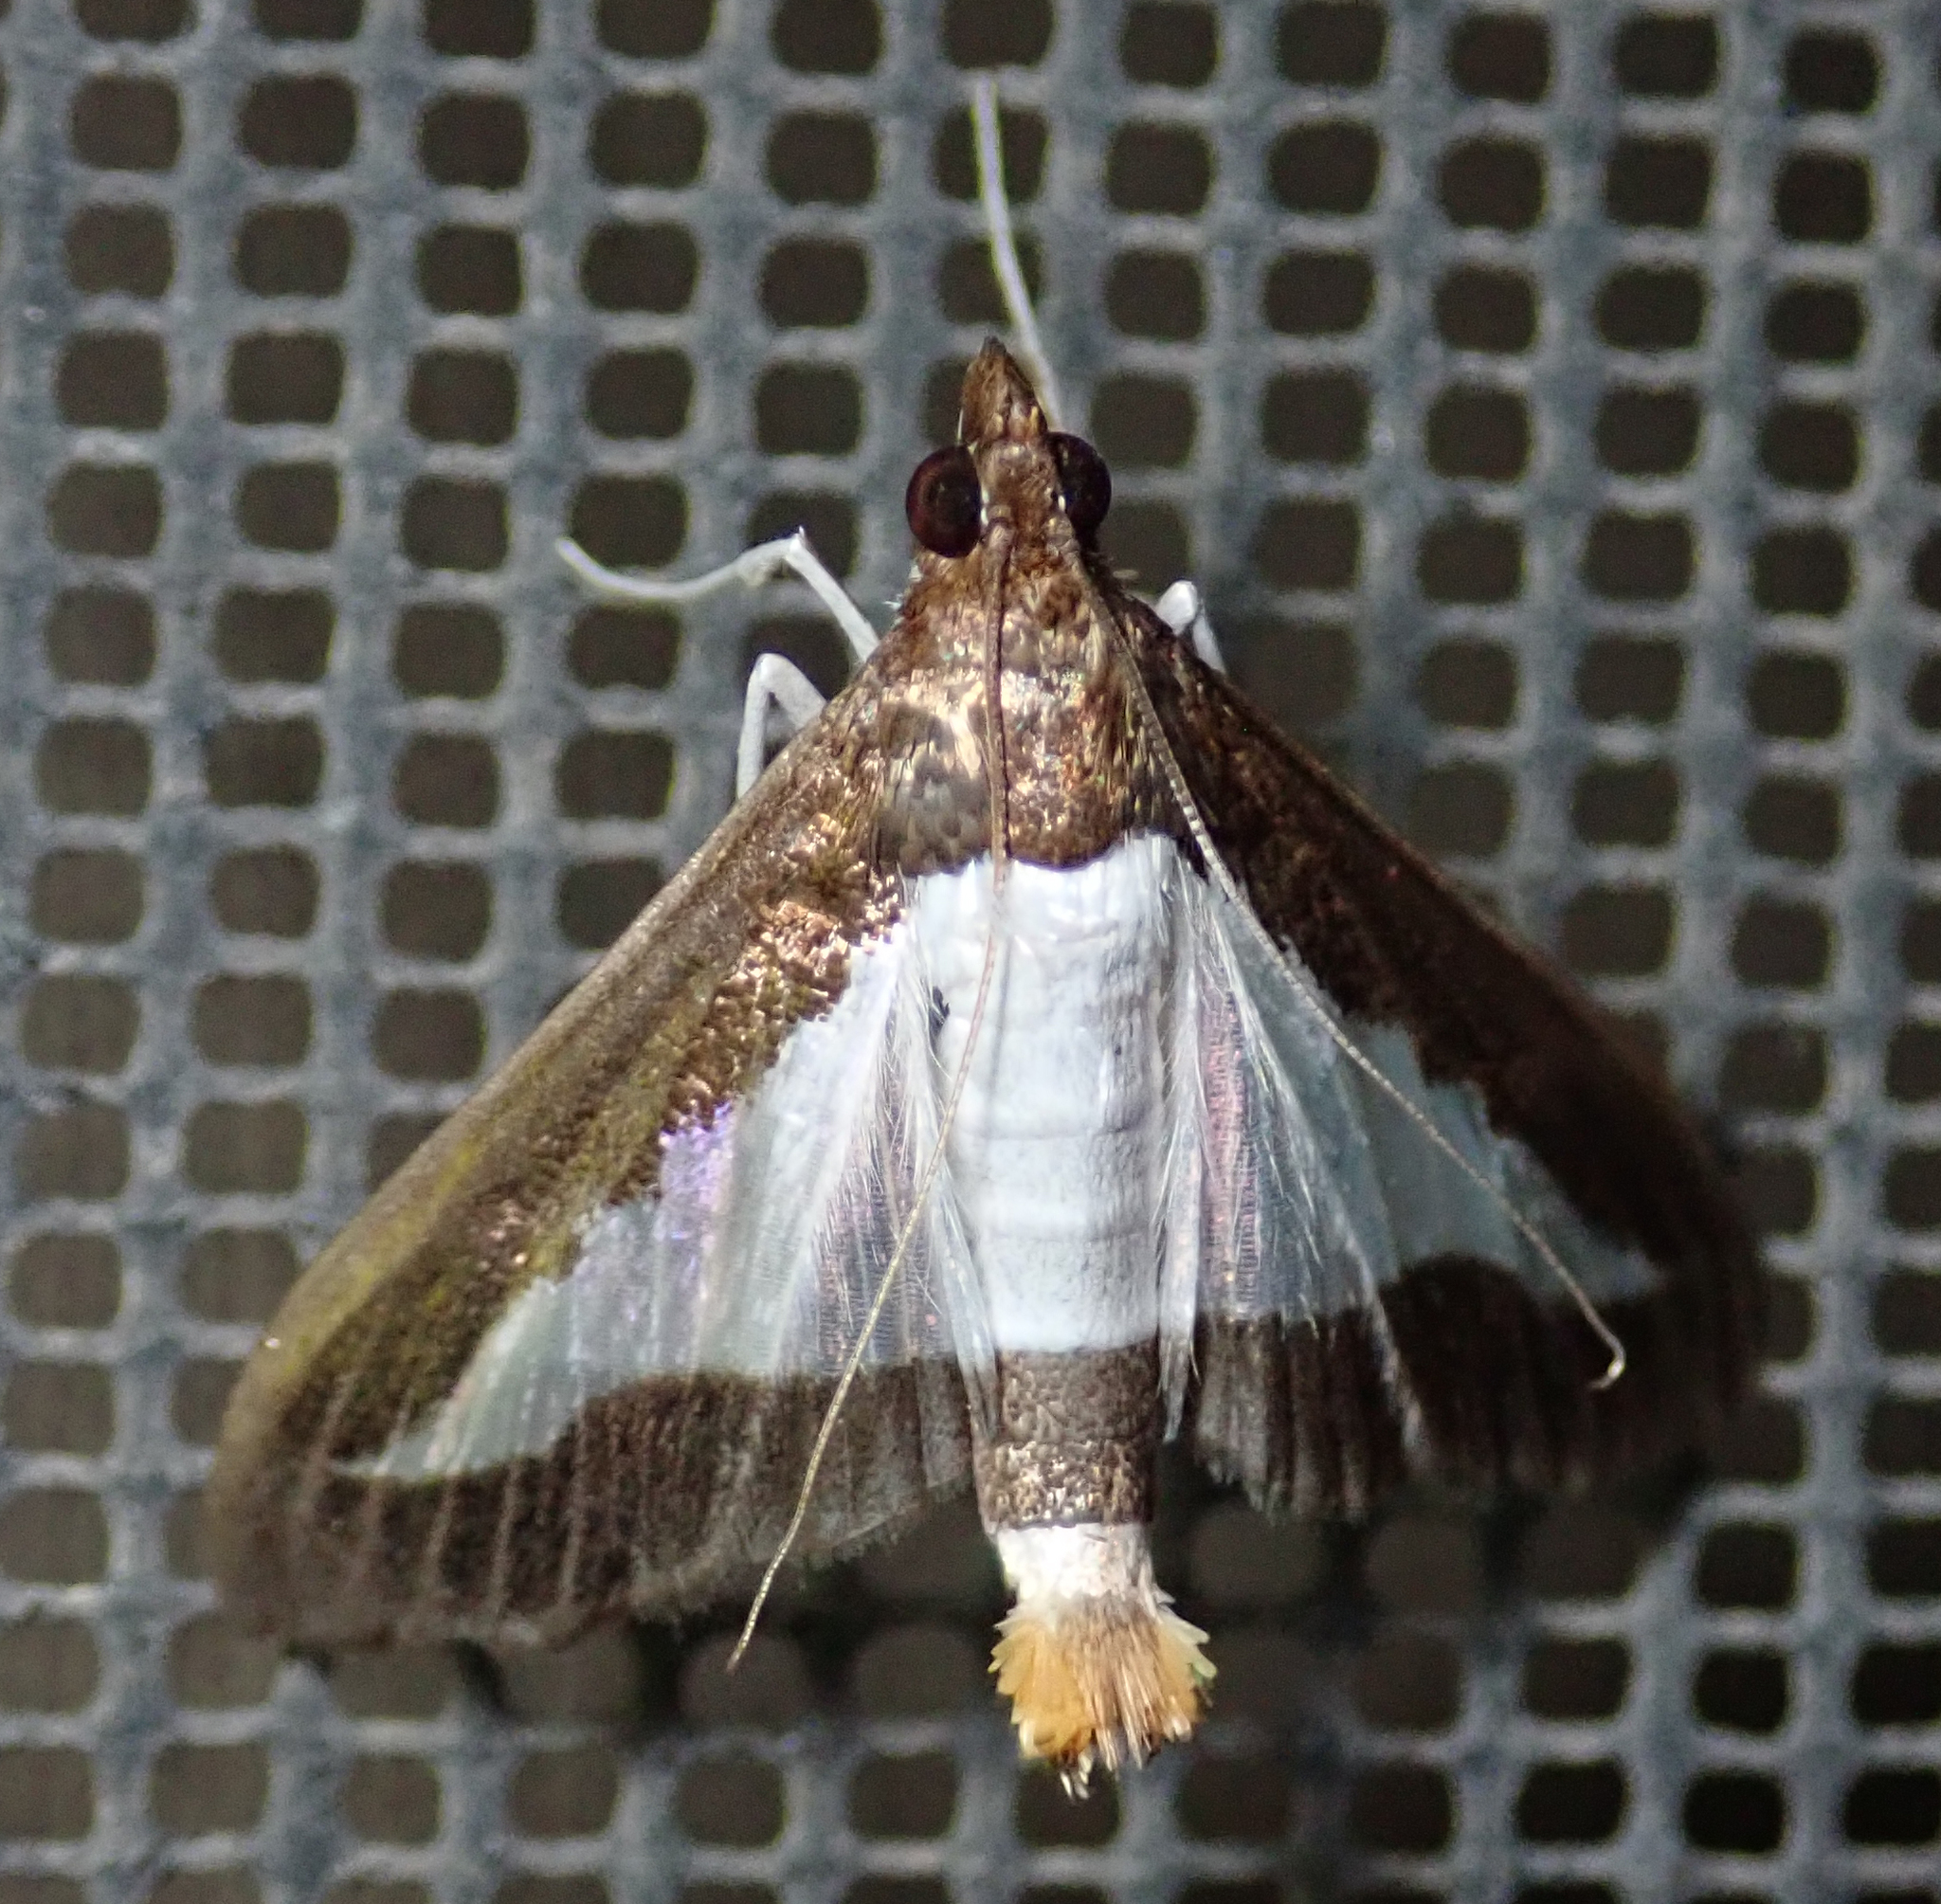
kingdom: Animalia
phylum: Arthropoda
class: Insecta
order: Lepidoptera
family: Crambidae
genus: Diaphania
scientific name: Diaphania indica
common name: Cucumber moth
